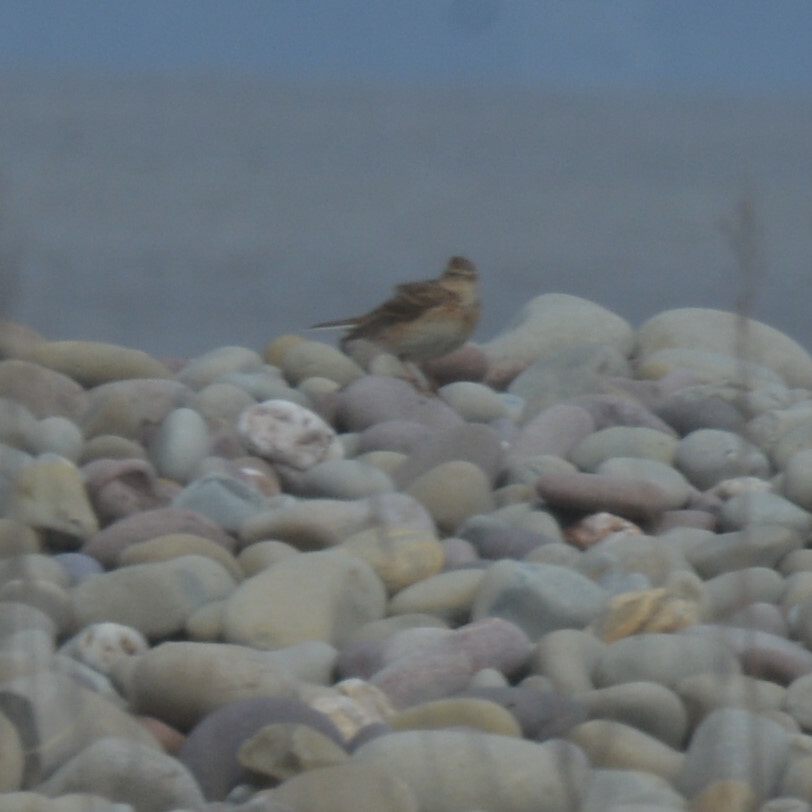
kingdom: Animalia
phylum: Chordata
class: Aves
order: Passeriformes
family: Alaudidae
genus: Alauda
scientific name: Alauda arvensis
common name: Eurasian skylark
